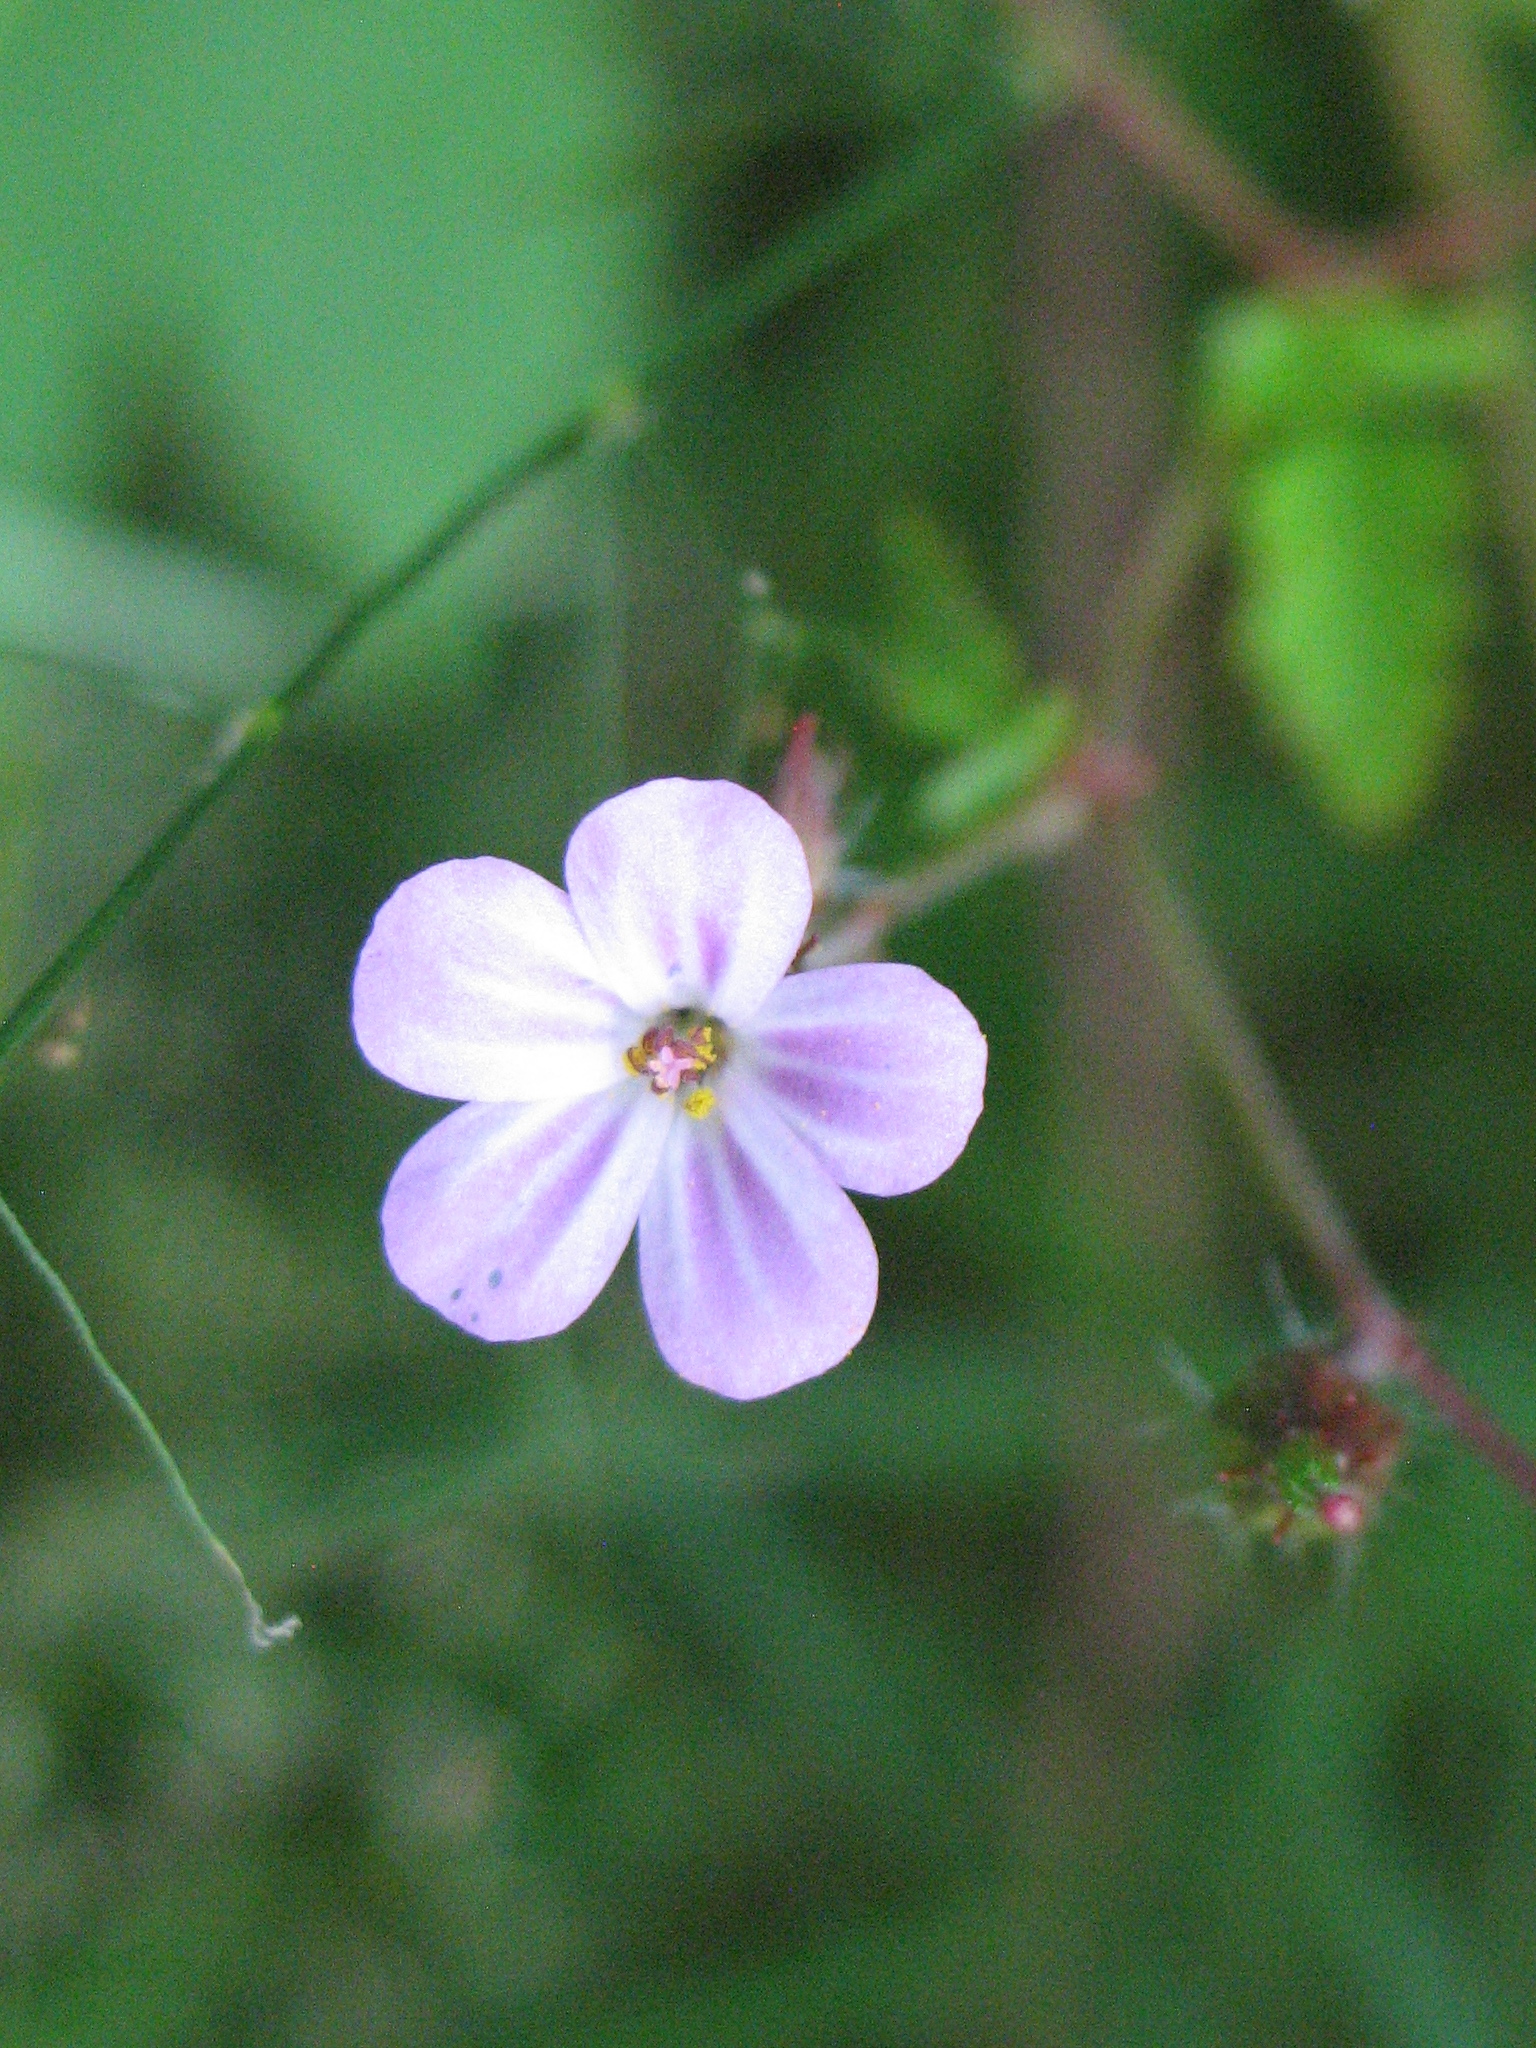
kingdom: Plantae
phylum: Tracheophyta
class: Magnoliopsida
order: Geraniales
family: Geraniaceae
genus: Geranium
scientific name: Geranium robertianum
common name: Herb-robert
